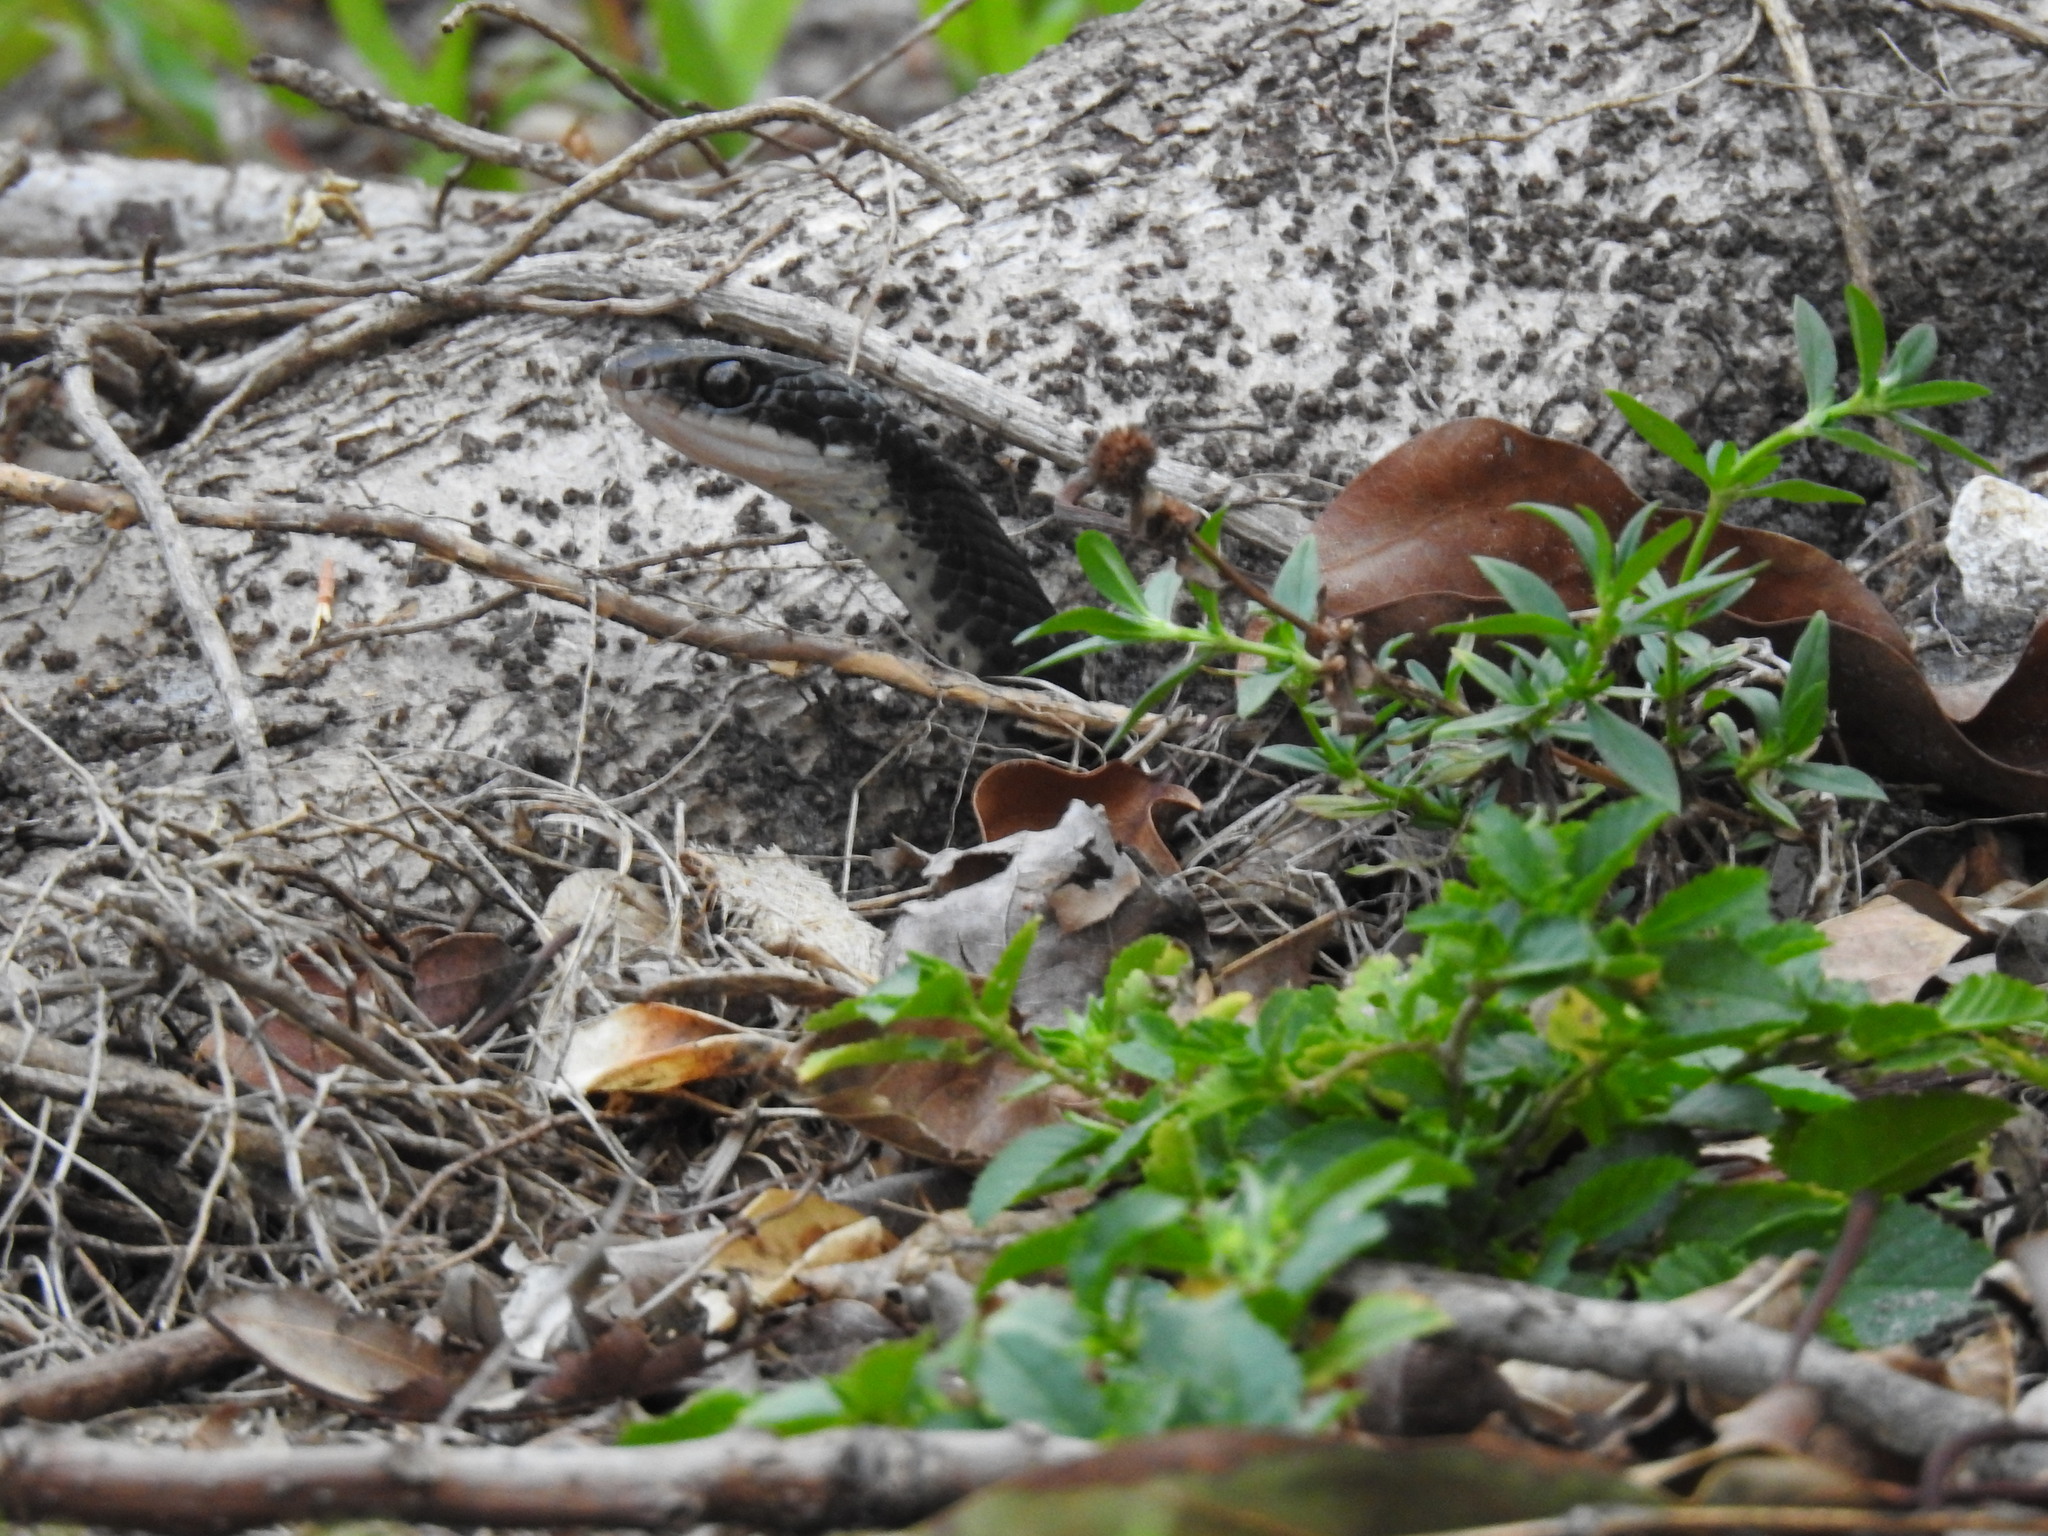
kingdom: Animalia
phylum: Chordata
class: Squamata
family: Colubridae
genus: Coluber
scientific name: Coluber constrictor
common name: Eastern racer
